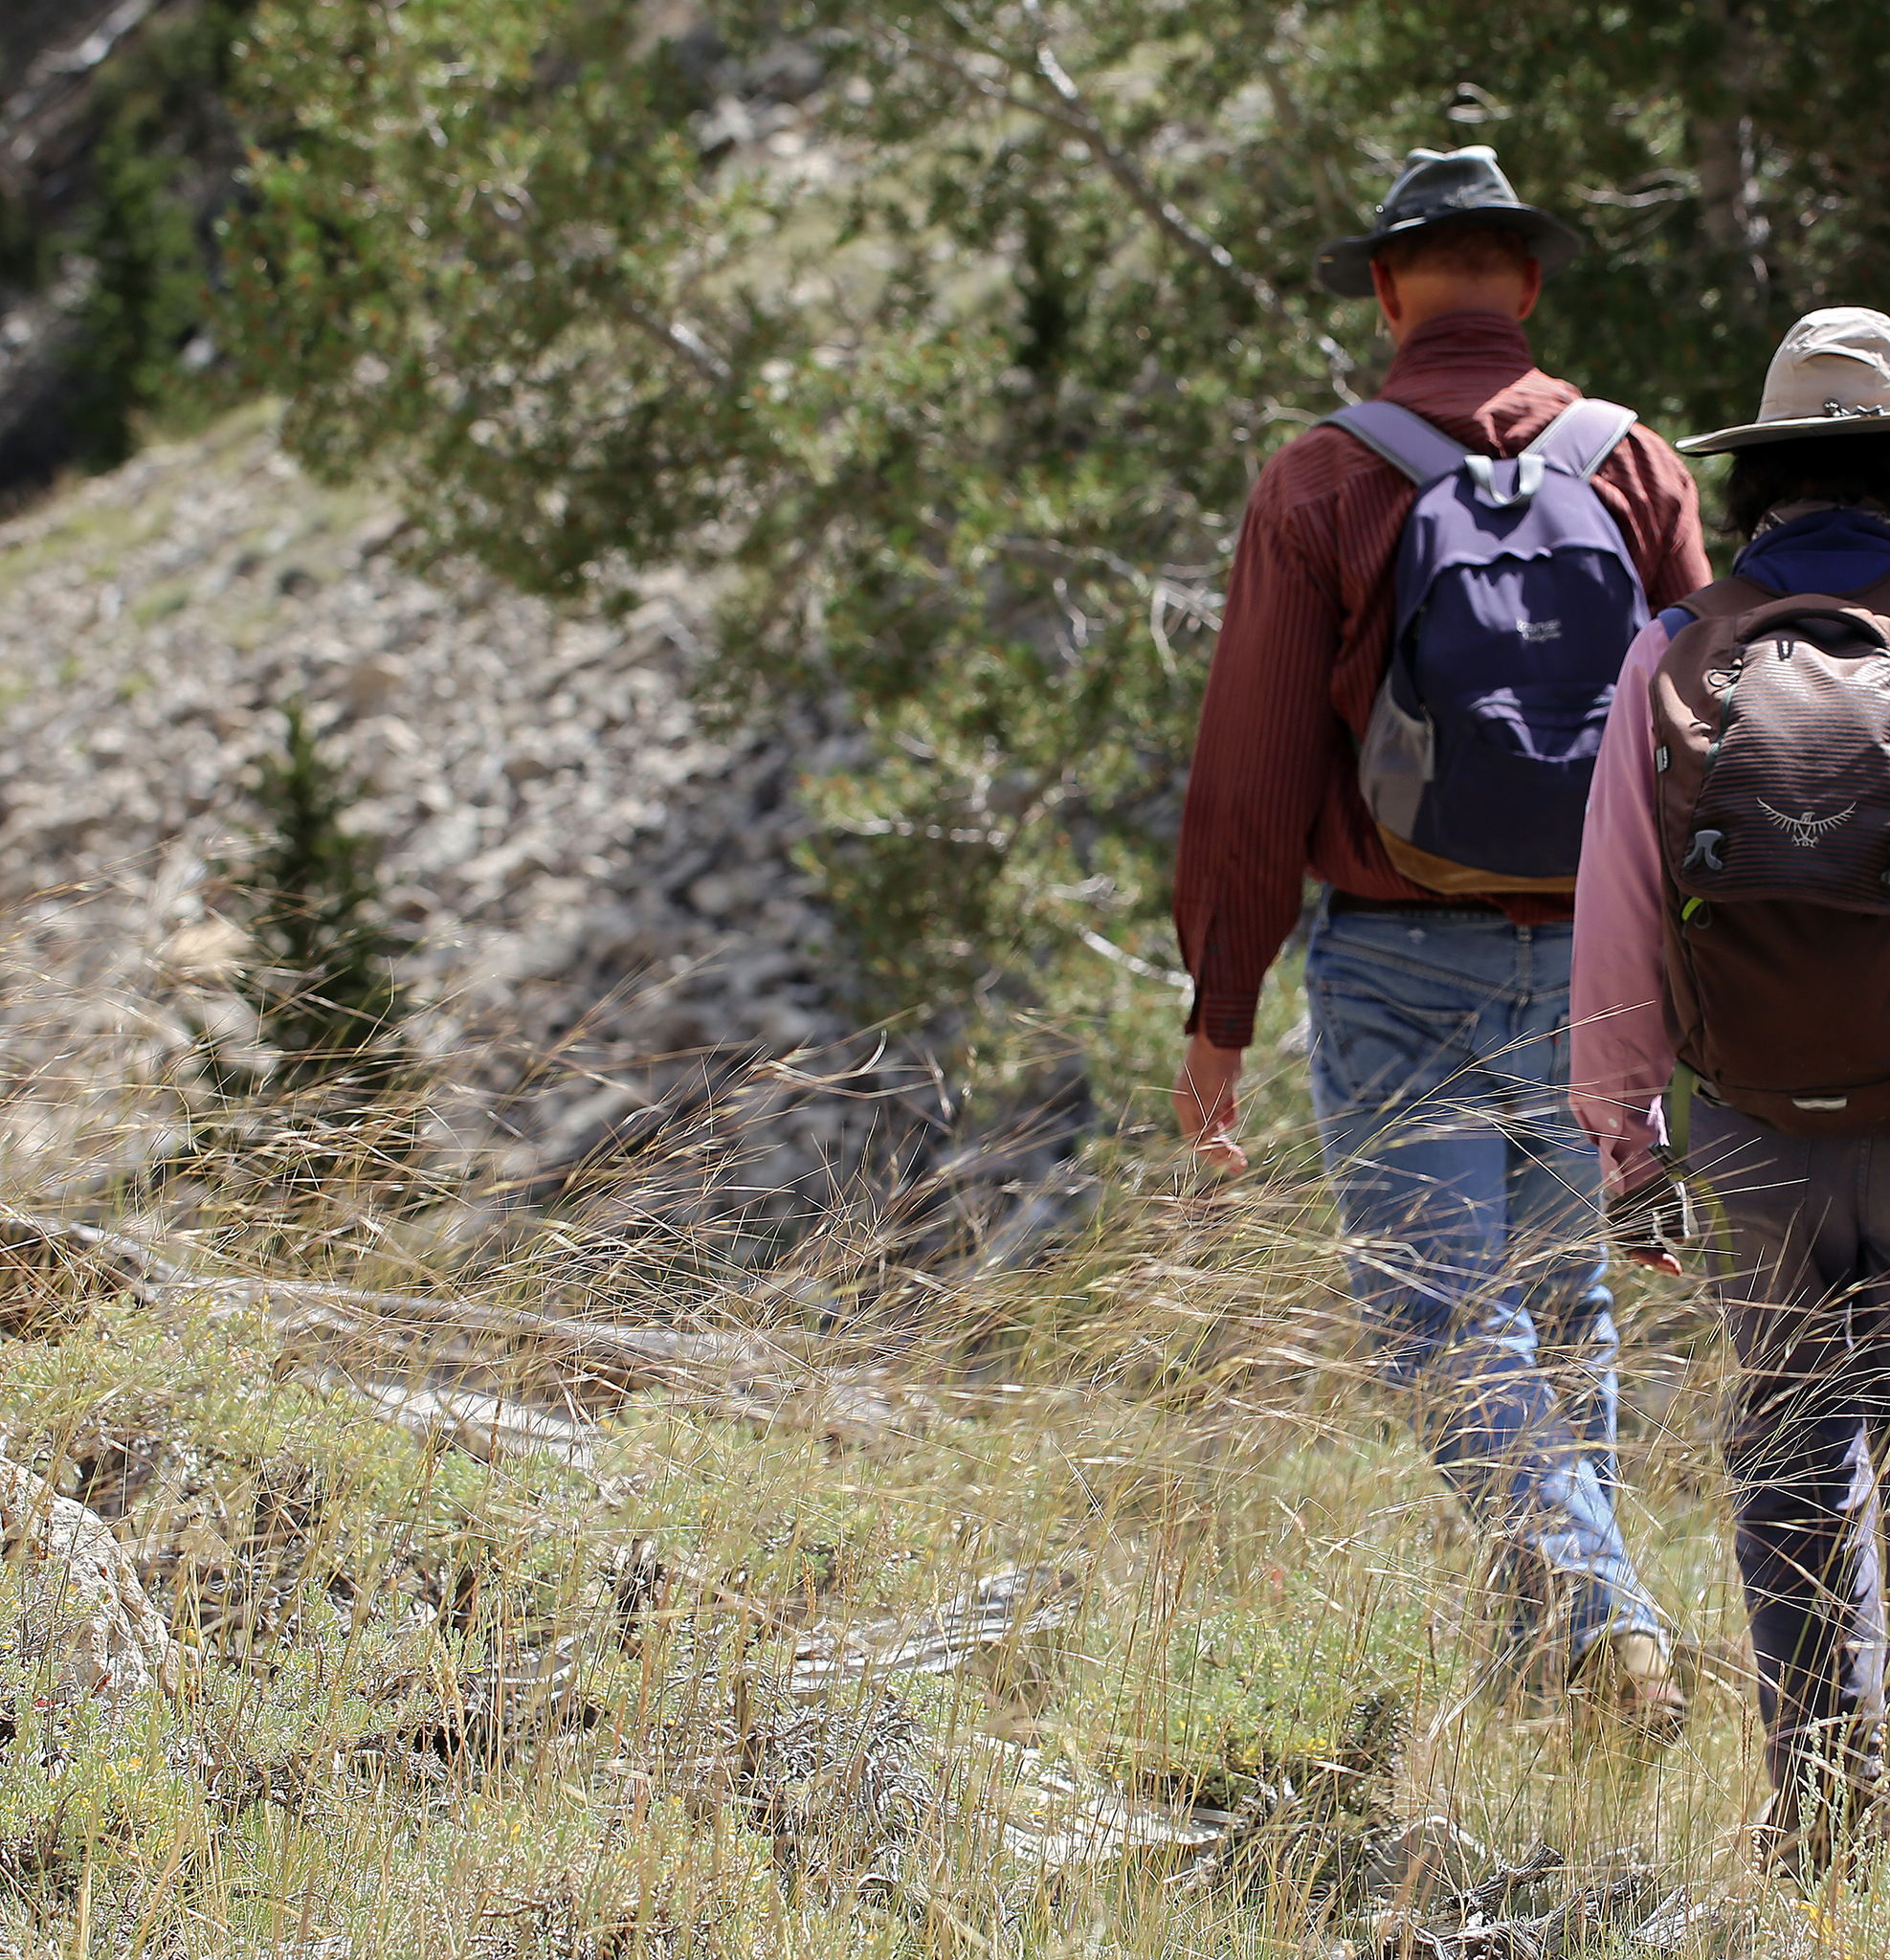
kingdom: Plantae
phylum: Tracheophyta
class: Liliopsida
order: Poales
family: Poaceae
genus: Hesperostipa
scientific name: Hesperostipa comata
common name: Needle-and-thread grass
